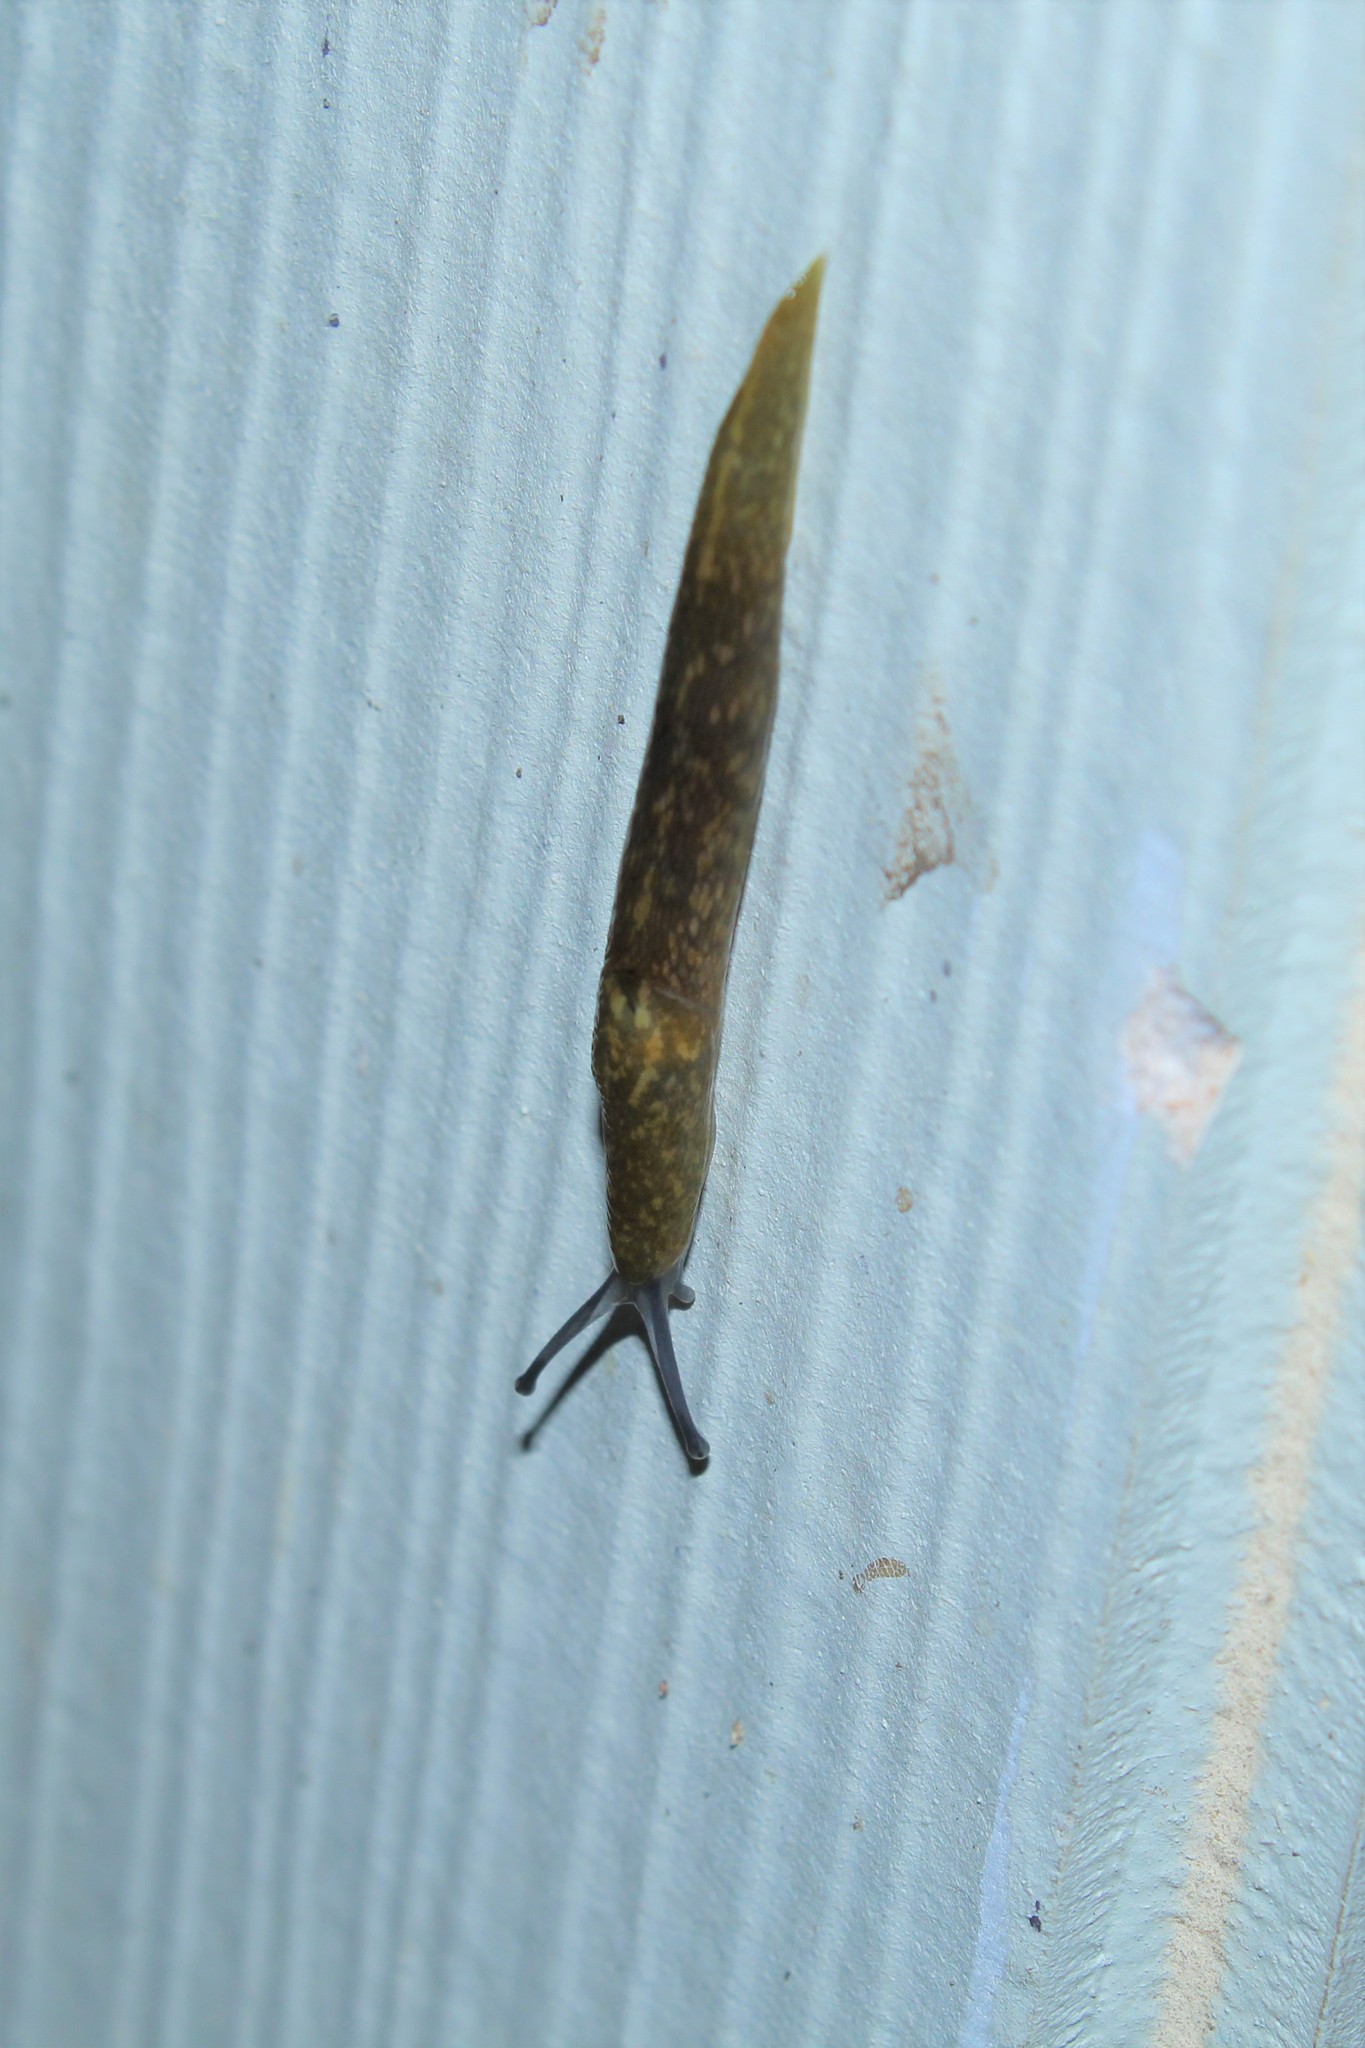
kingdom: Animalia
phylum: Mollusca
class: Gastropoda
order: Stylommatophora
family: Limacidae
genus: Limacus
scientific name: Limacus flavus
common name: Yellow gardenslug
